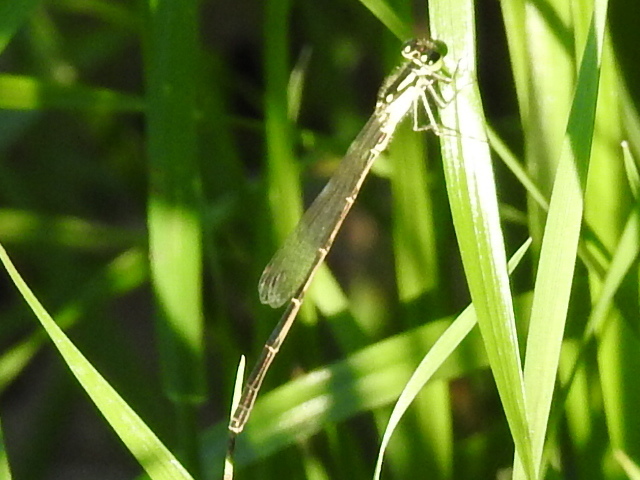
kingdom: Animalia
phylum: Arthropoda
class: Insecta
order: Odonata
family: Coenagrionidae
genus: Ischnura
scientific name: Ischnura posita
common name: Fragile forktail
